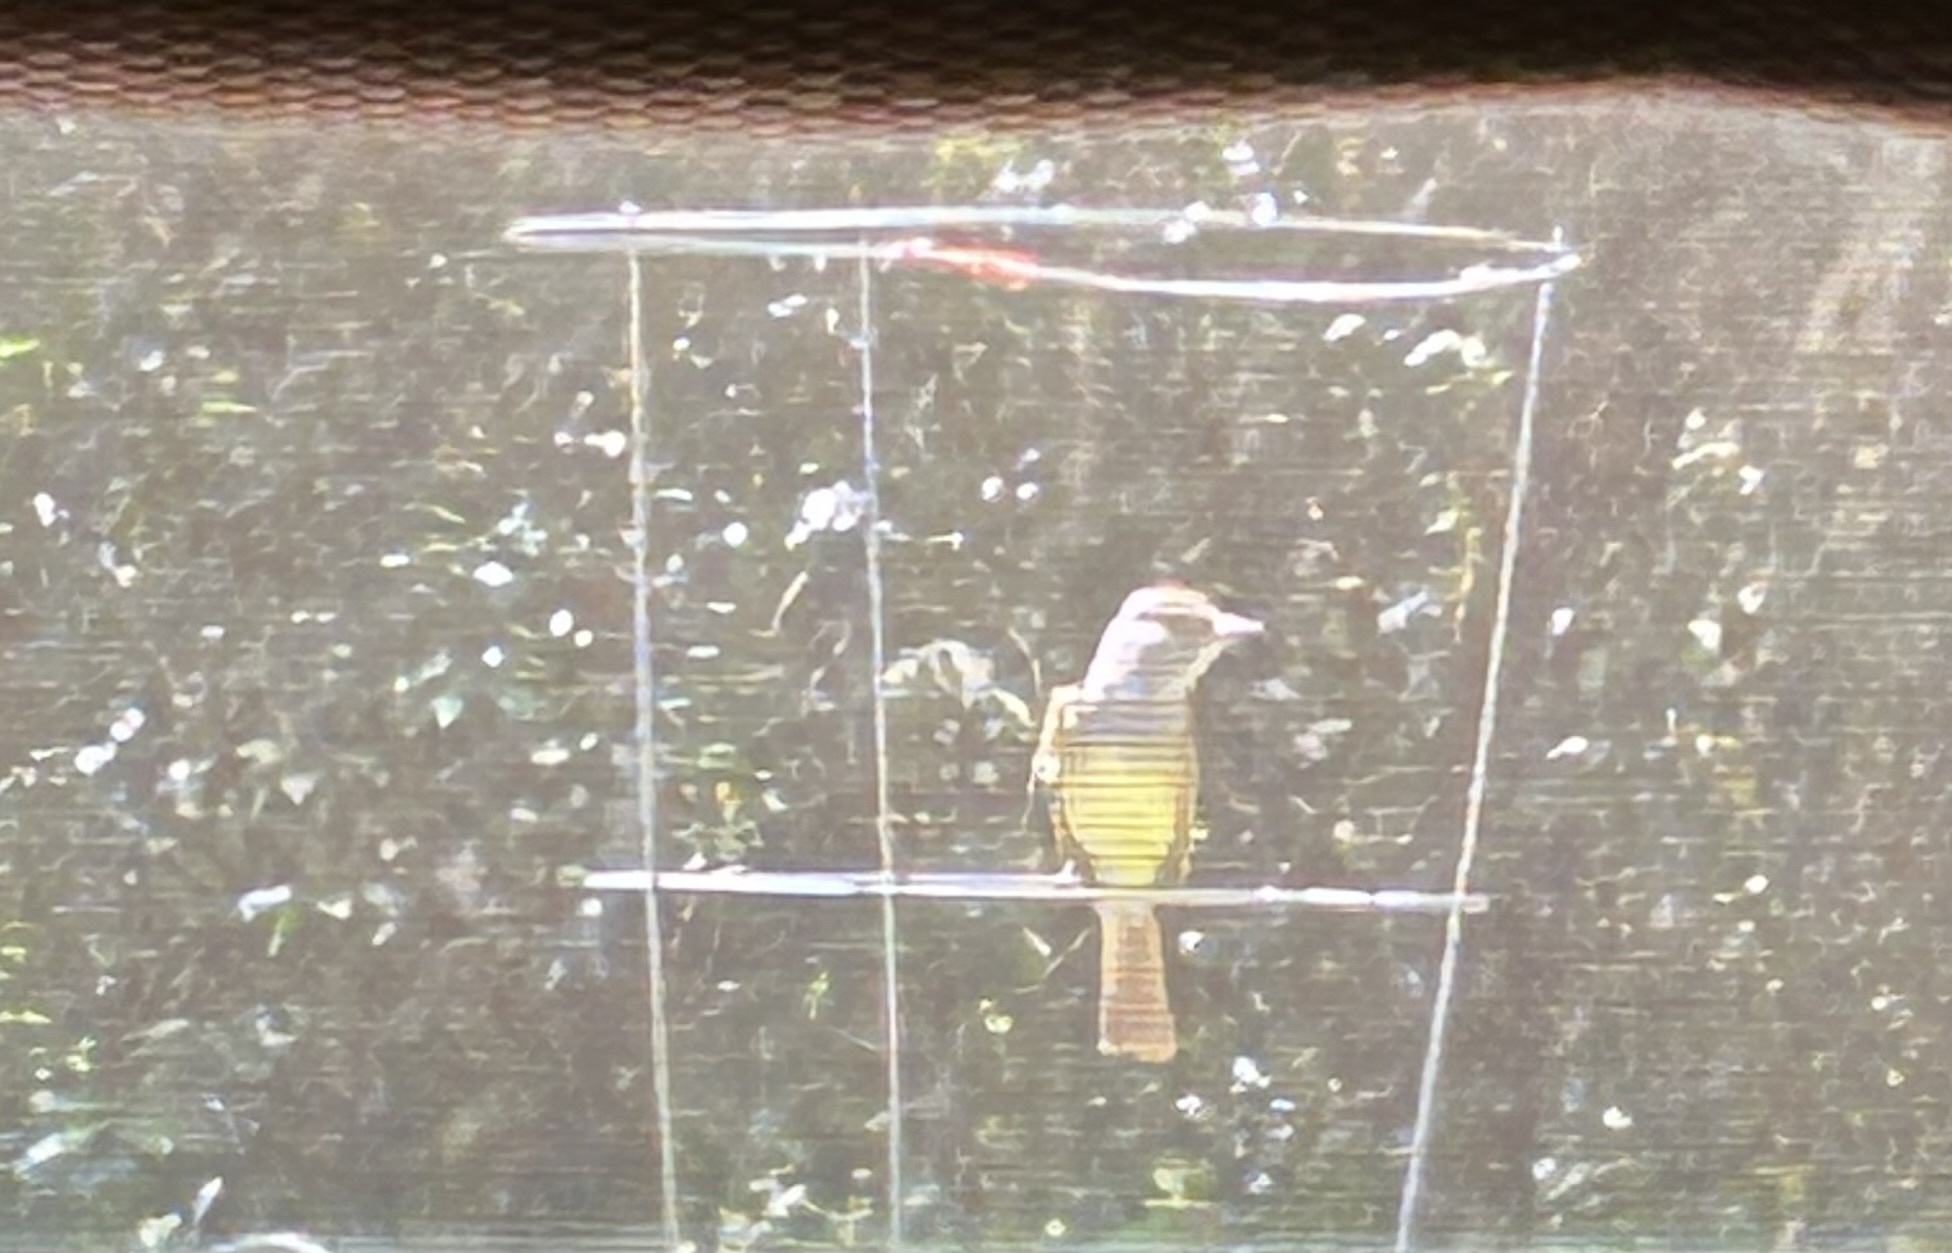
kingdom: Animalia
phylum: Chordata
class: Aves
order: Passeriformes
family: Tyrannidae
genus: Myiarchus
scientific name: Myiarchus crinitus
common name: Great crested flycatcher
